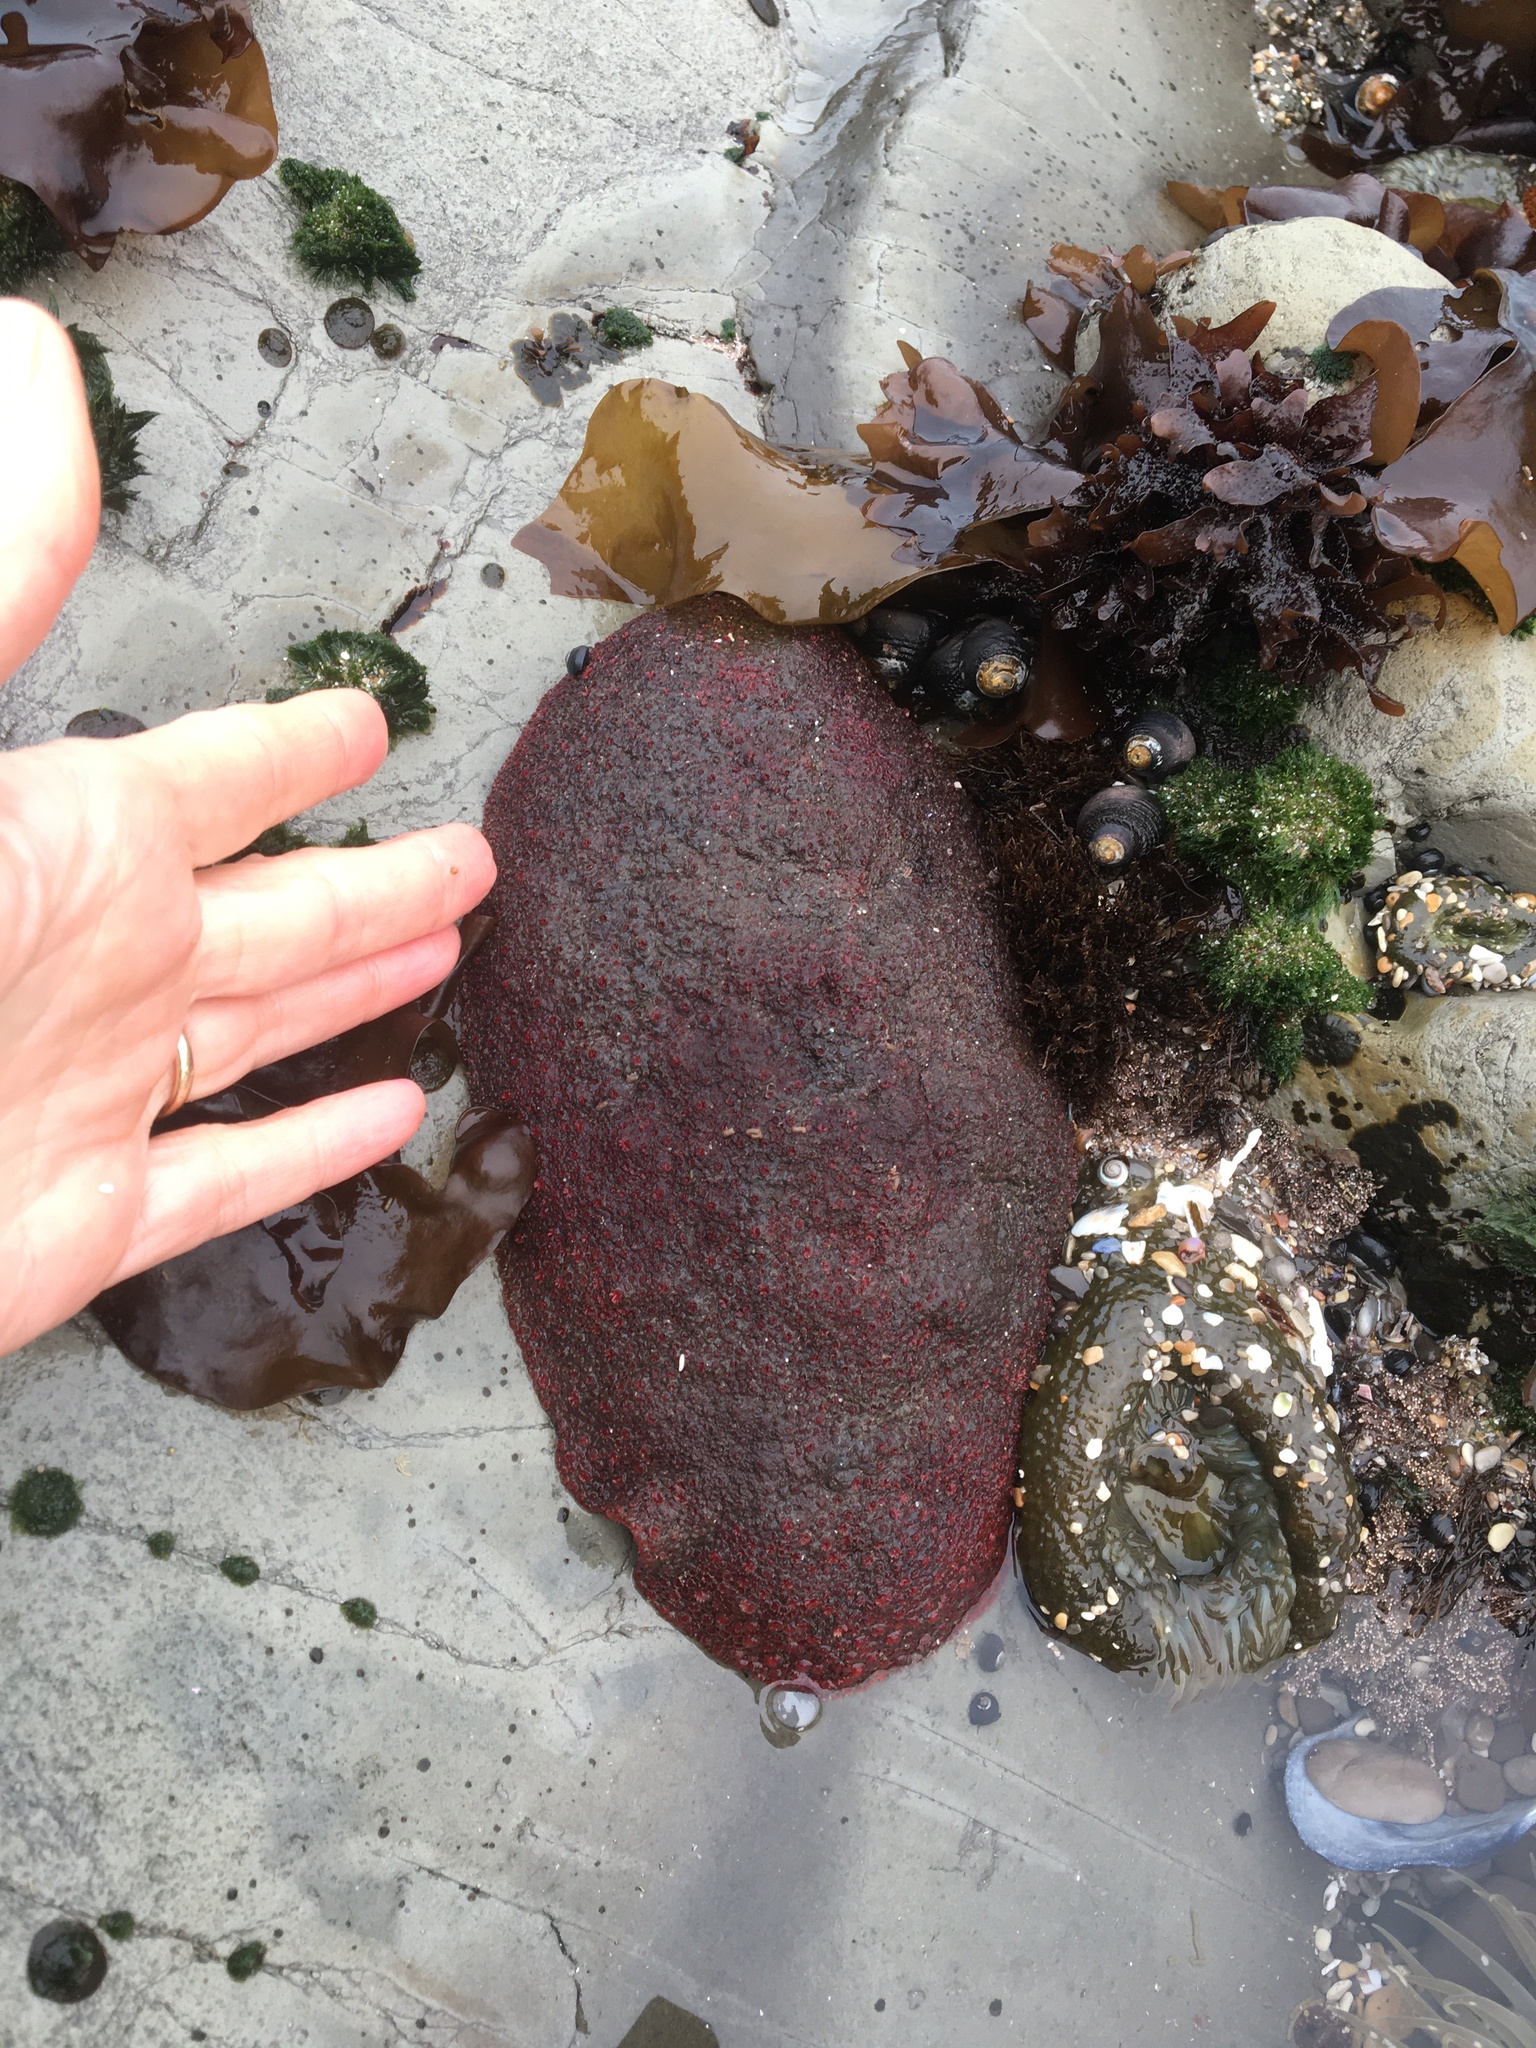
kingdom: Animalia
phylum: Mollusca
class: Polyplacophora
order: Chitonida
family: Acanthochitonidae
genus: Cryptochiton
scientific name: Cryptochiton stelleri
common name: Giant pacific chiton
